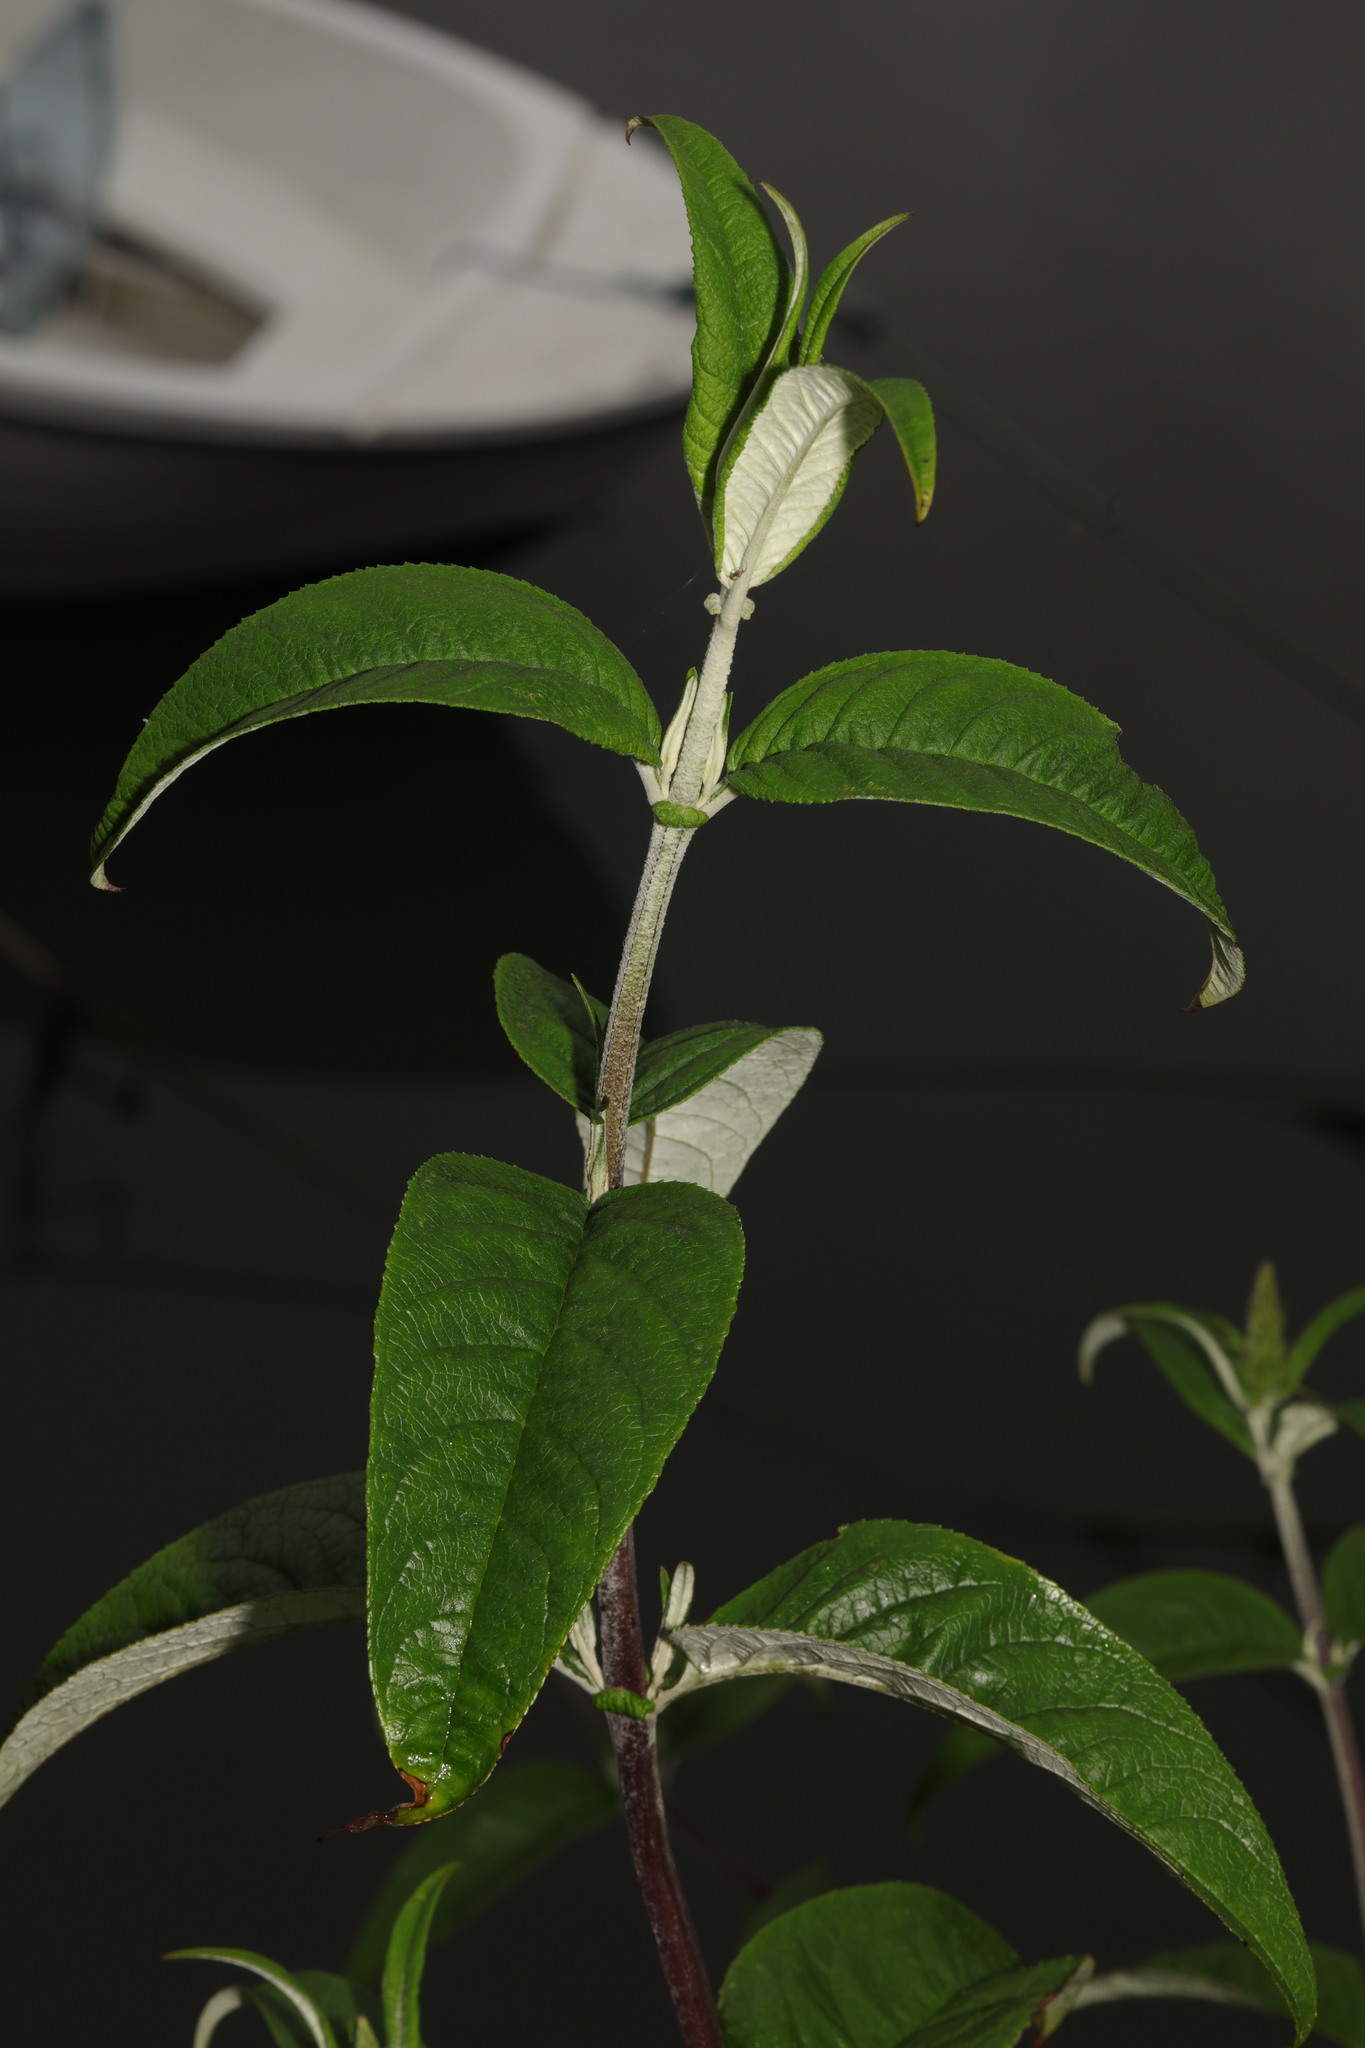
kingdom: Plantae
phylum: Tracheophyta
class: Magnoliopsida
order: Lamiales
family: Scrophulariaceae
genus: Buddleja
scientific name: Buddleja davidii
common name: Butterfly-bush
